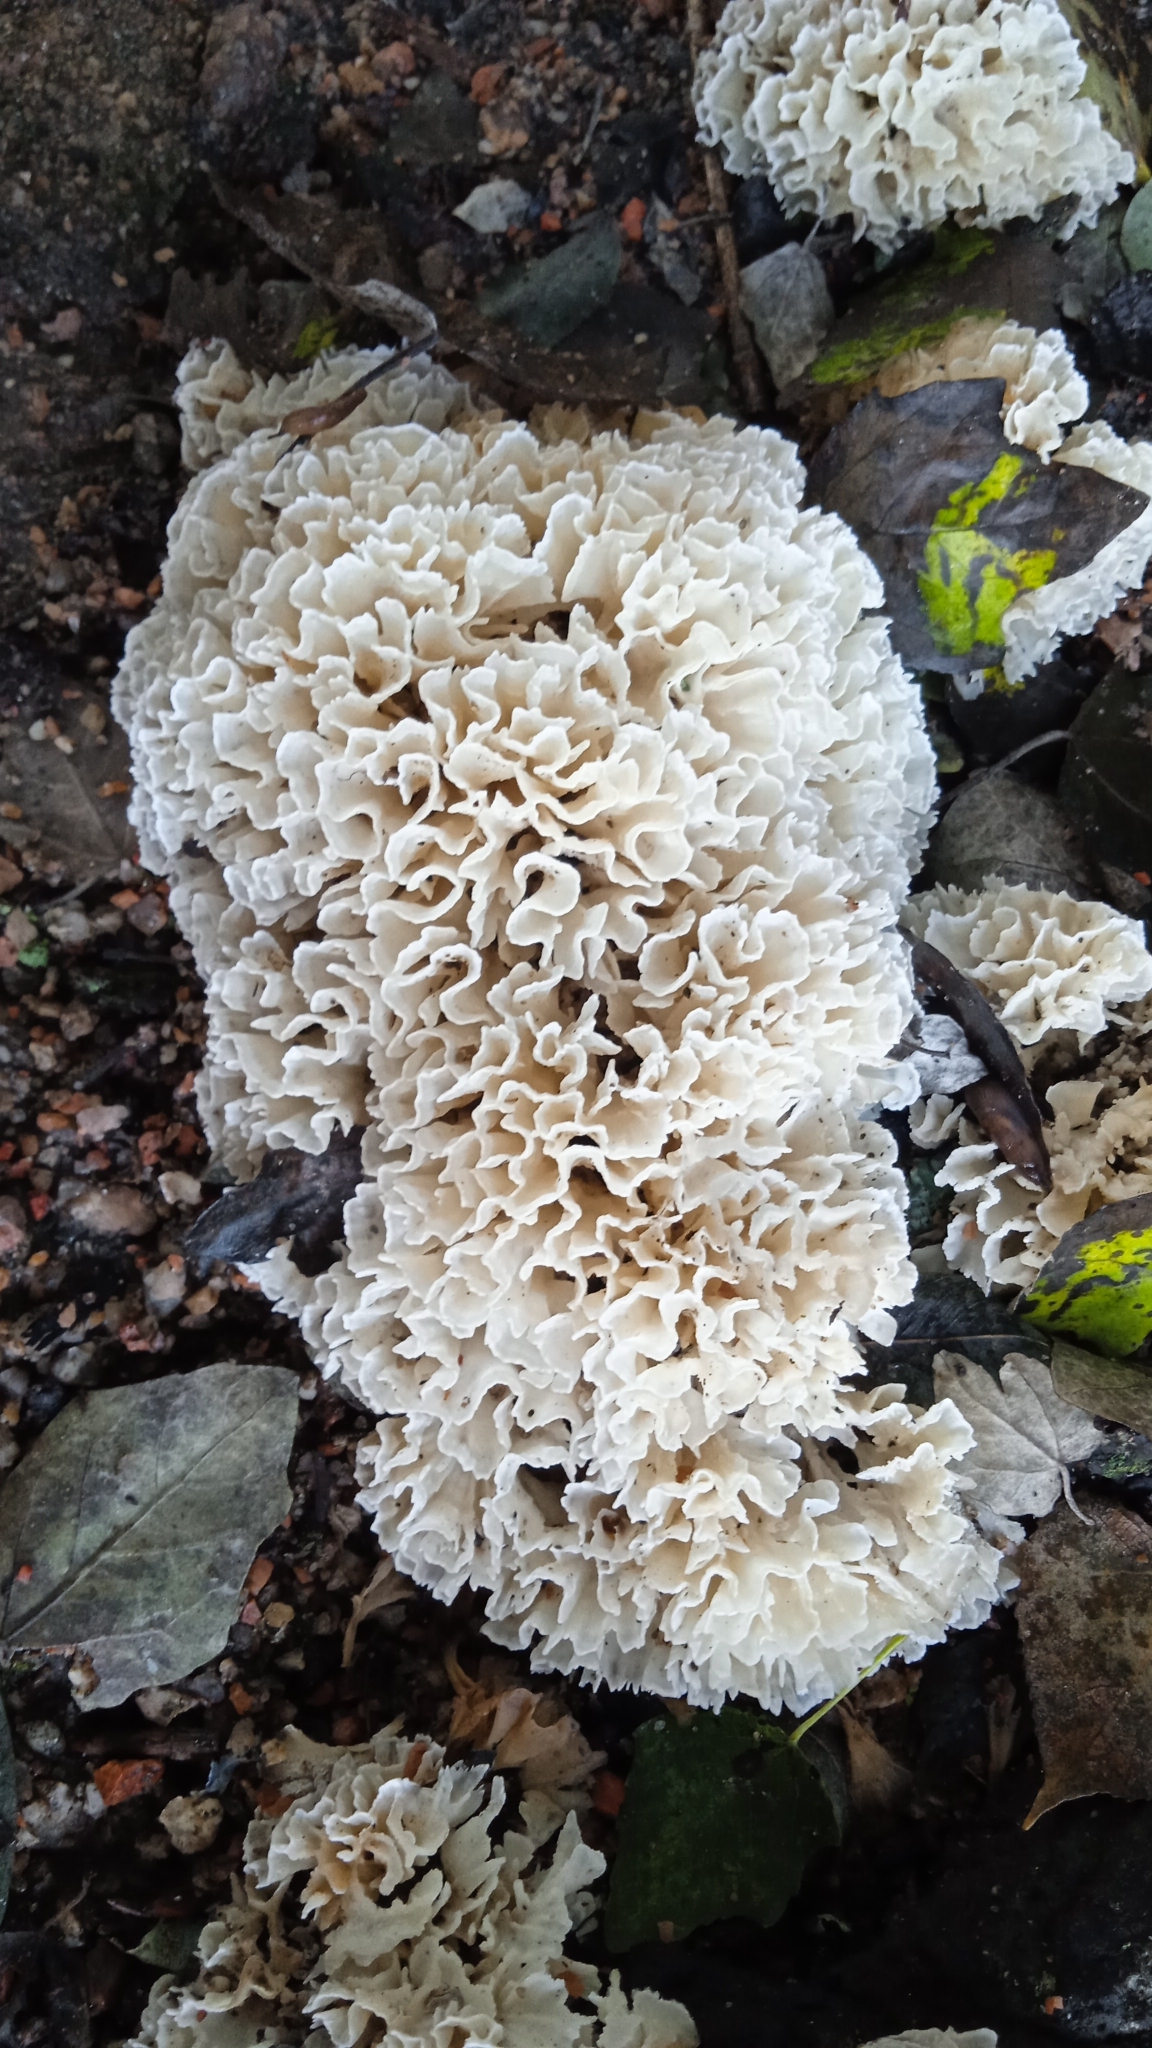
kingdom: Fungi
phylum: Basidiomycota
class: Agaricomycetes
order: Polyporales
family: Irpicaceae
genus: Irpex
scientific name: Irpex rosettiformis
